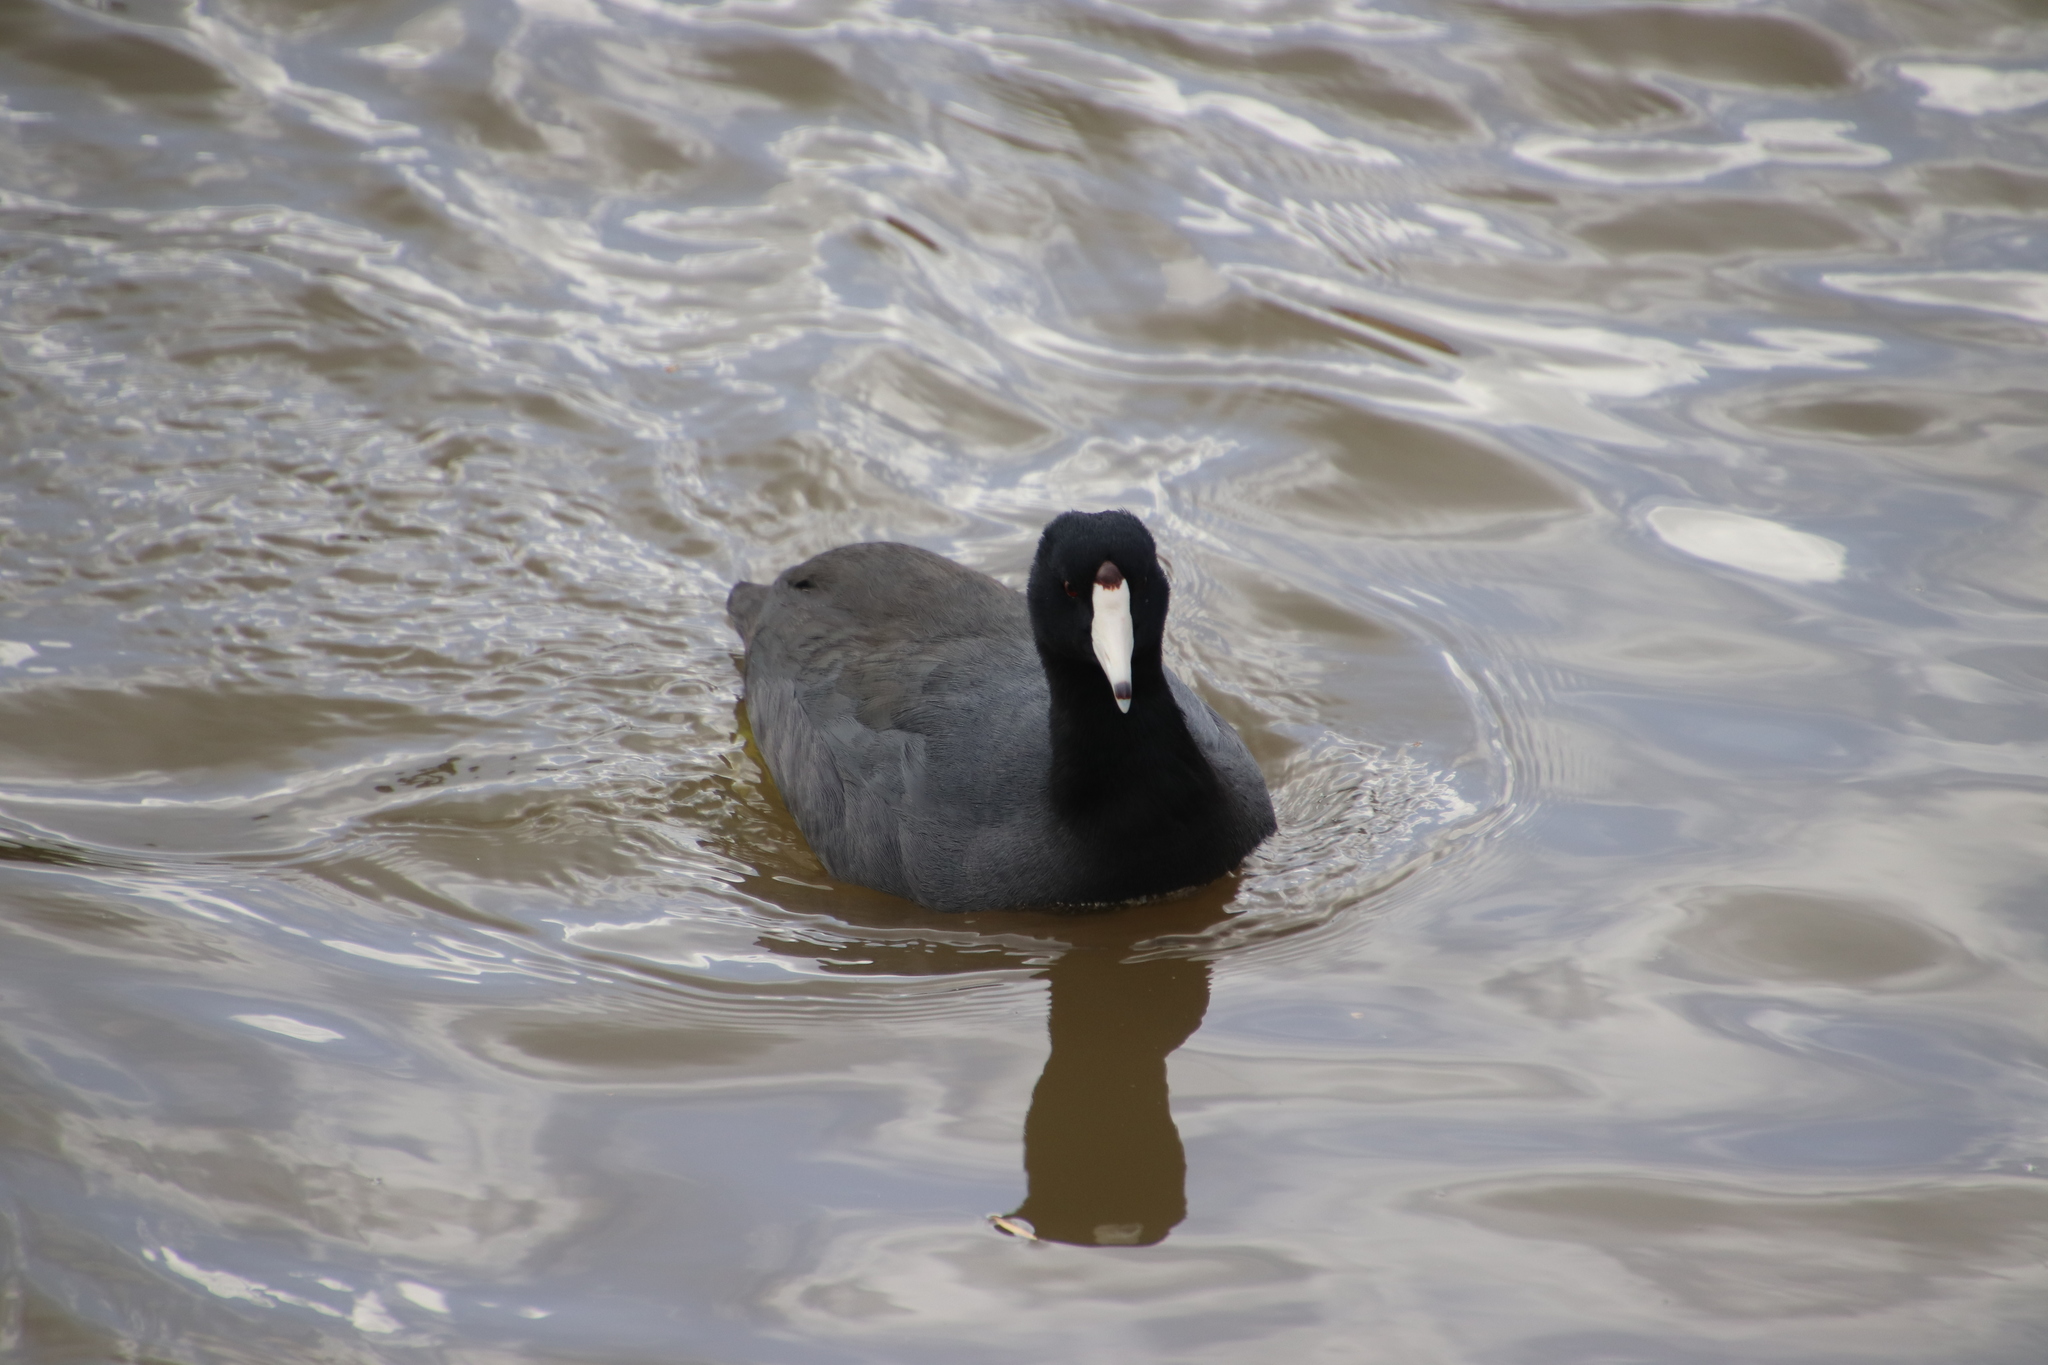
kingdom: Animalia
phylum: Chordata
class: Aves
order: Gruiformes
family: Rallidae
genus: Fulica
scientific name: Fulica americana
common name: American coot
